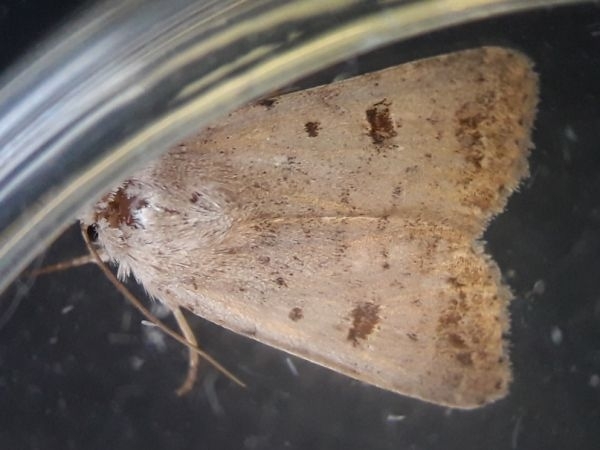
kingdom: Animalia
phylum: Arthropoda
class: Insecta
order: Lepidoptera
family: Noctuidae
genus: Caradrina
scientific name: Caradrina kadenii
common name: Clancy's rustic
